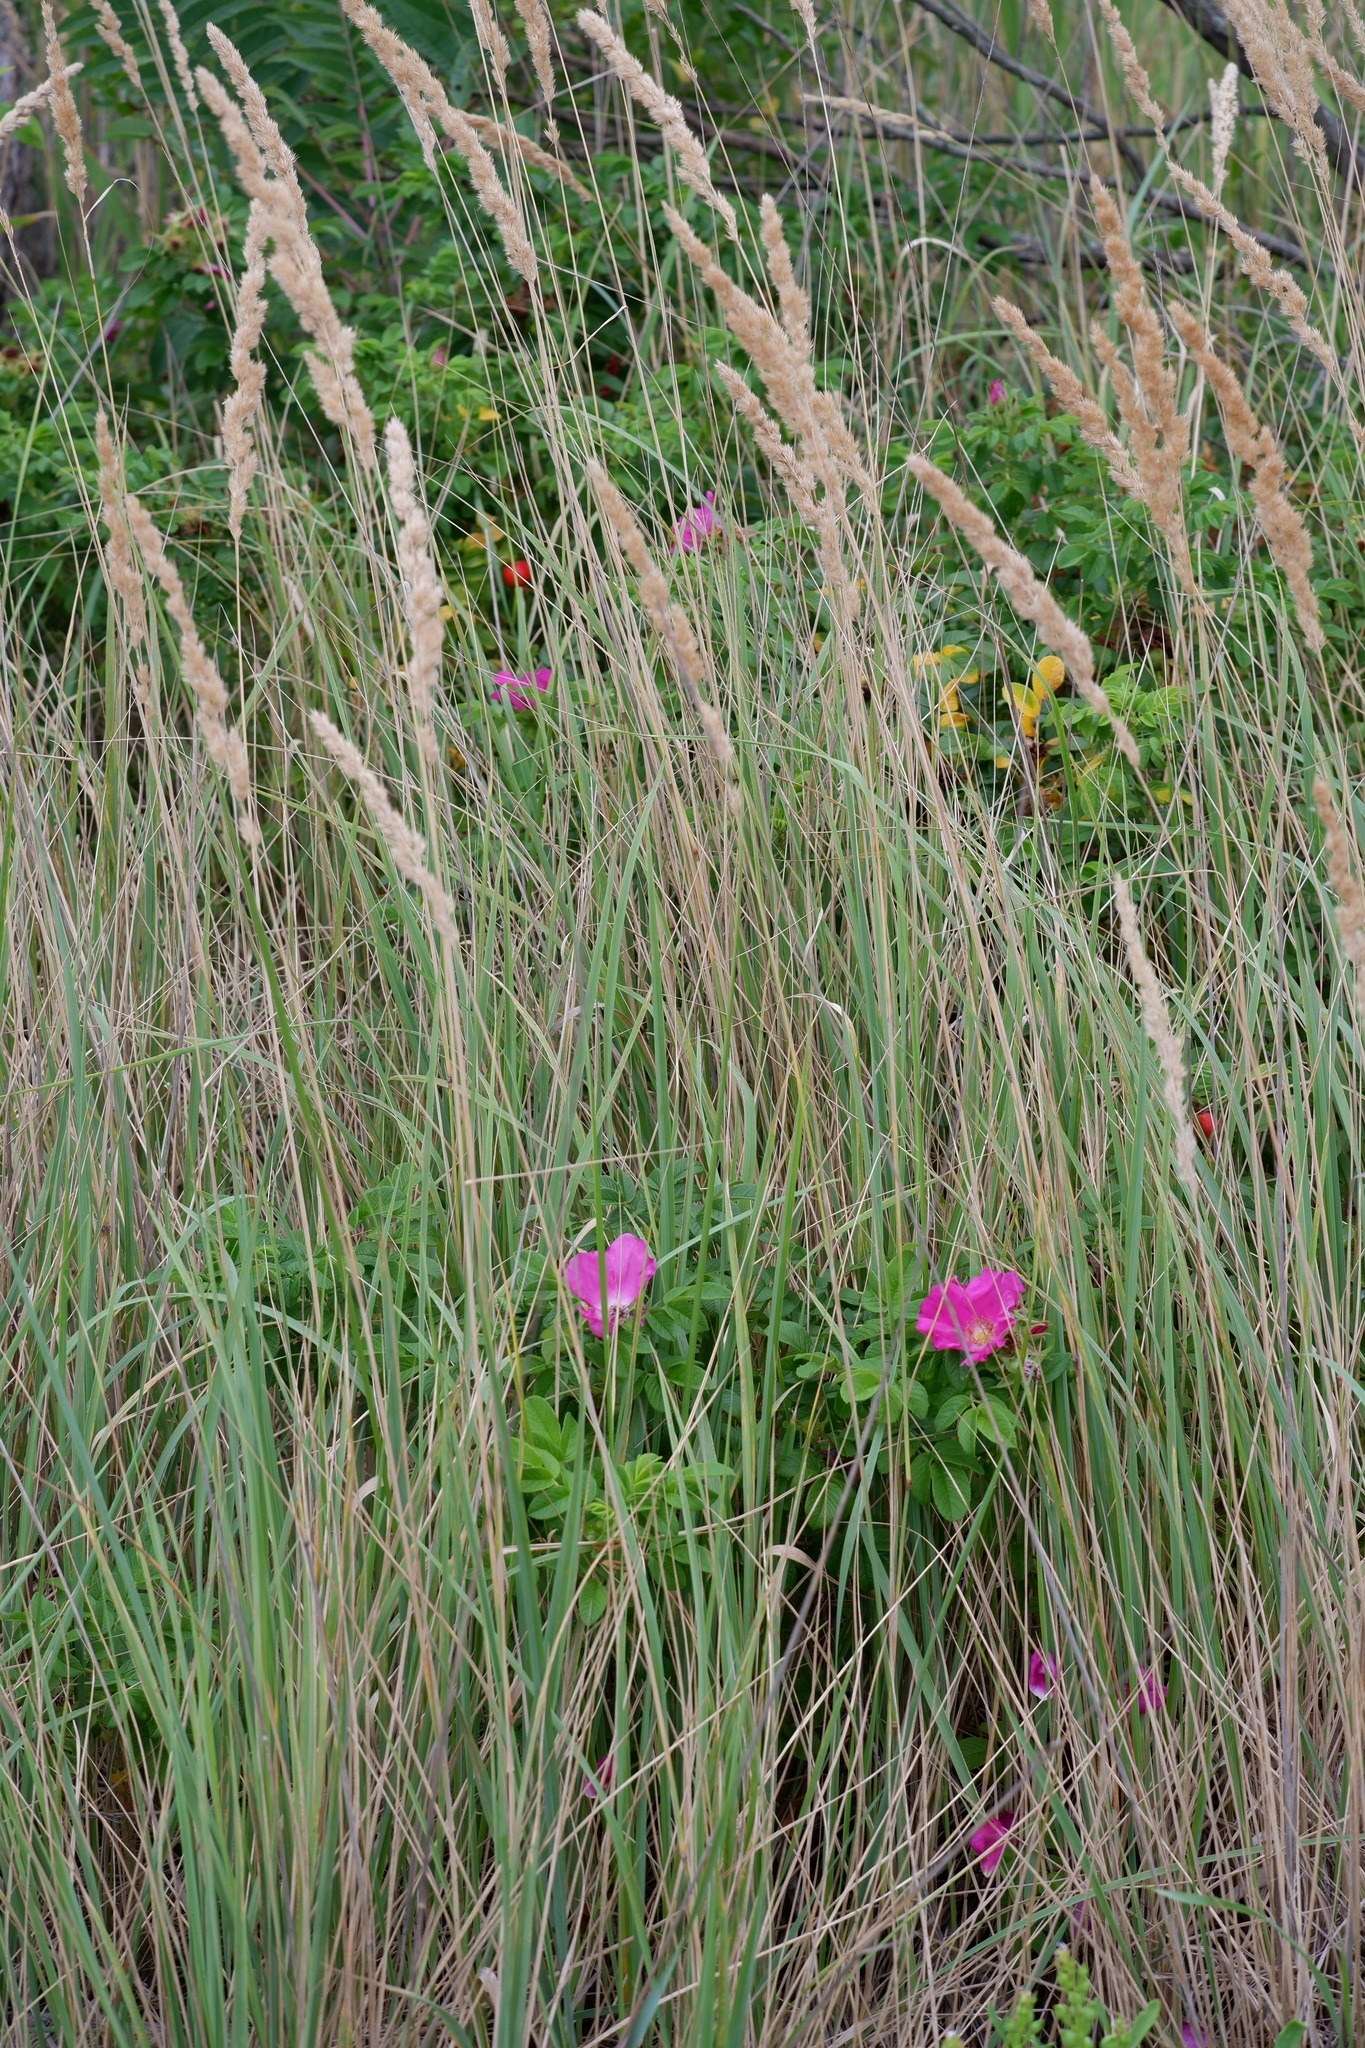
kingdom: Plantae
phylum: Tracheophyta
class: Magnoliopsida
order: Rosales
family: Rosaceae
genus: Rosa
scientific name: Rosa rugosa
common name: Japanese rose
